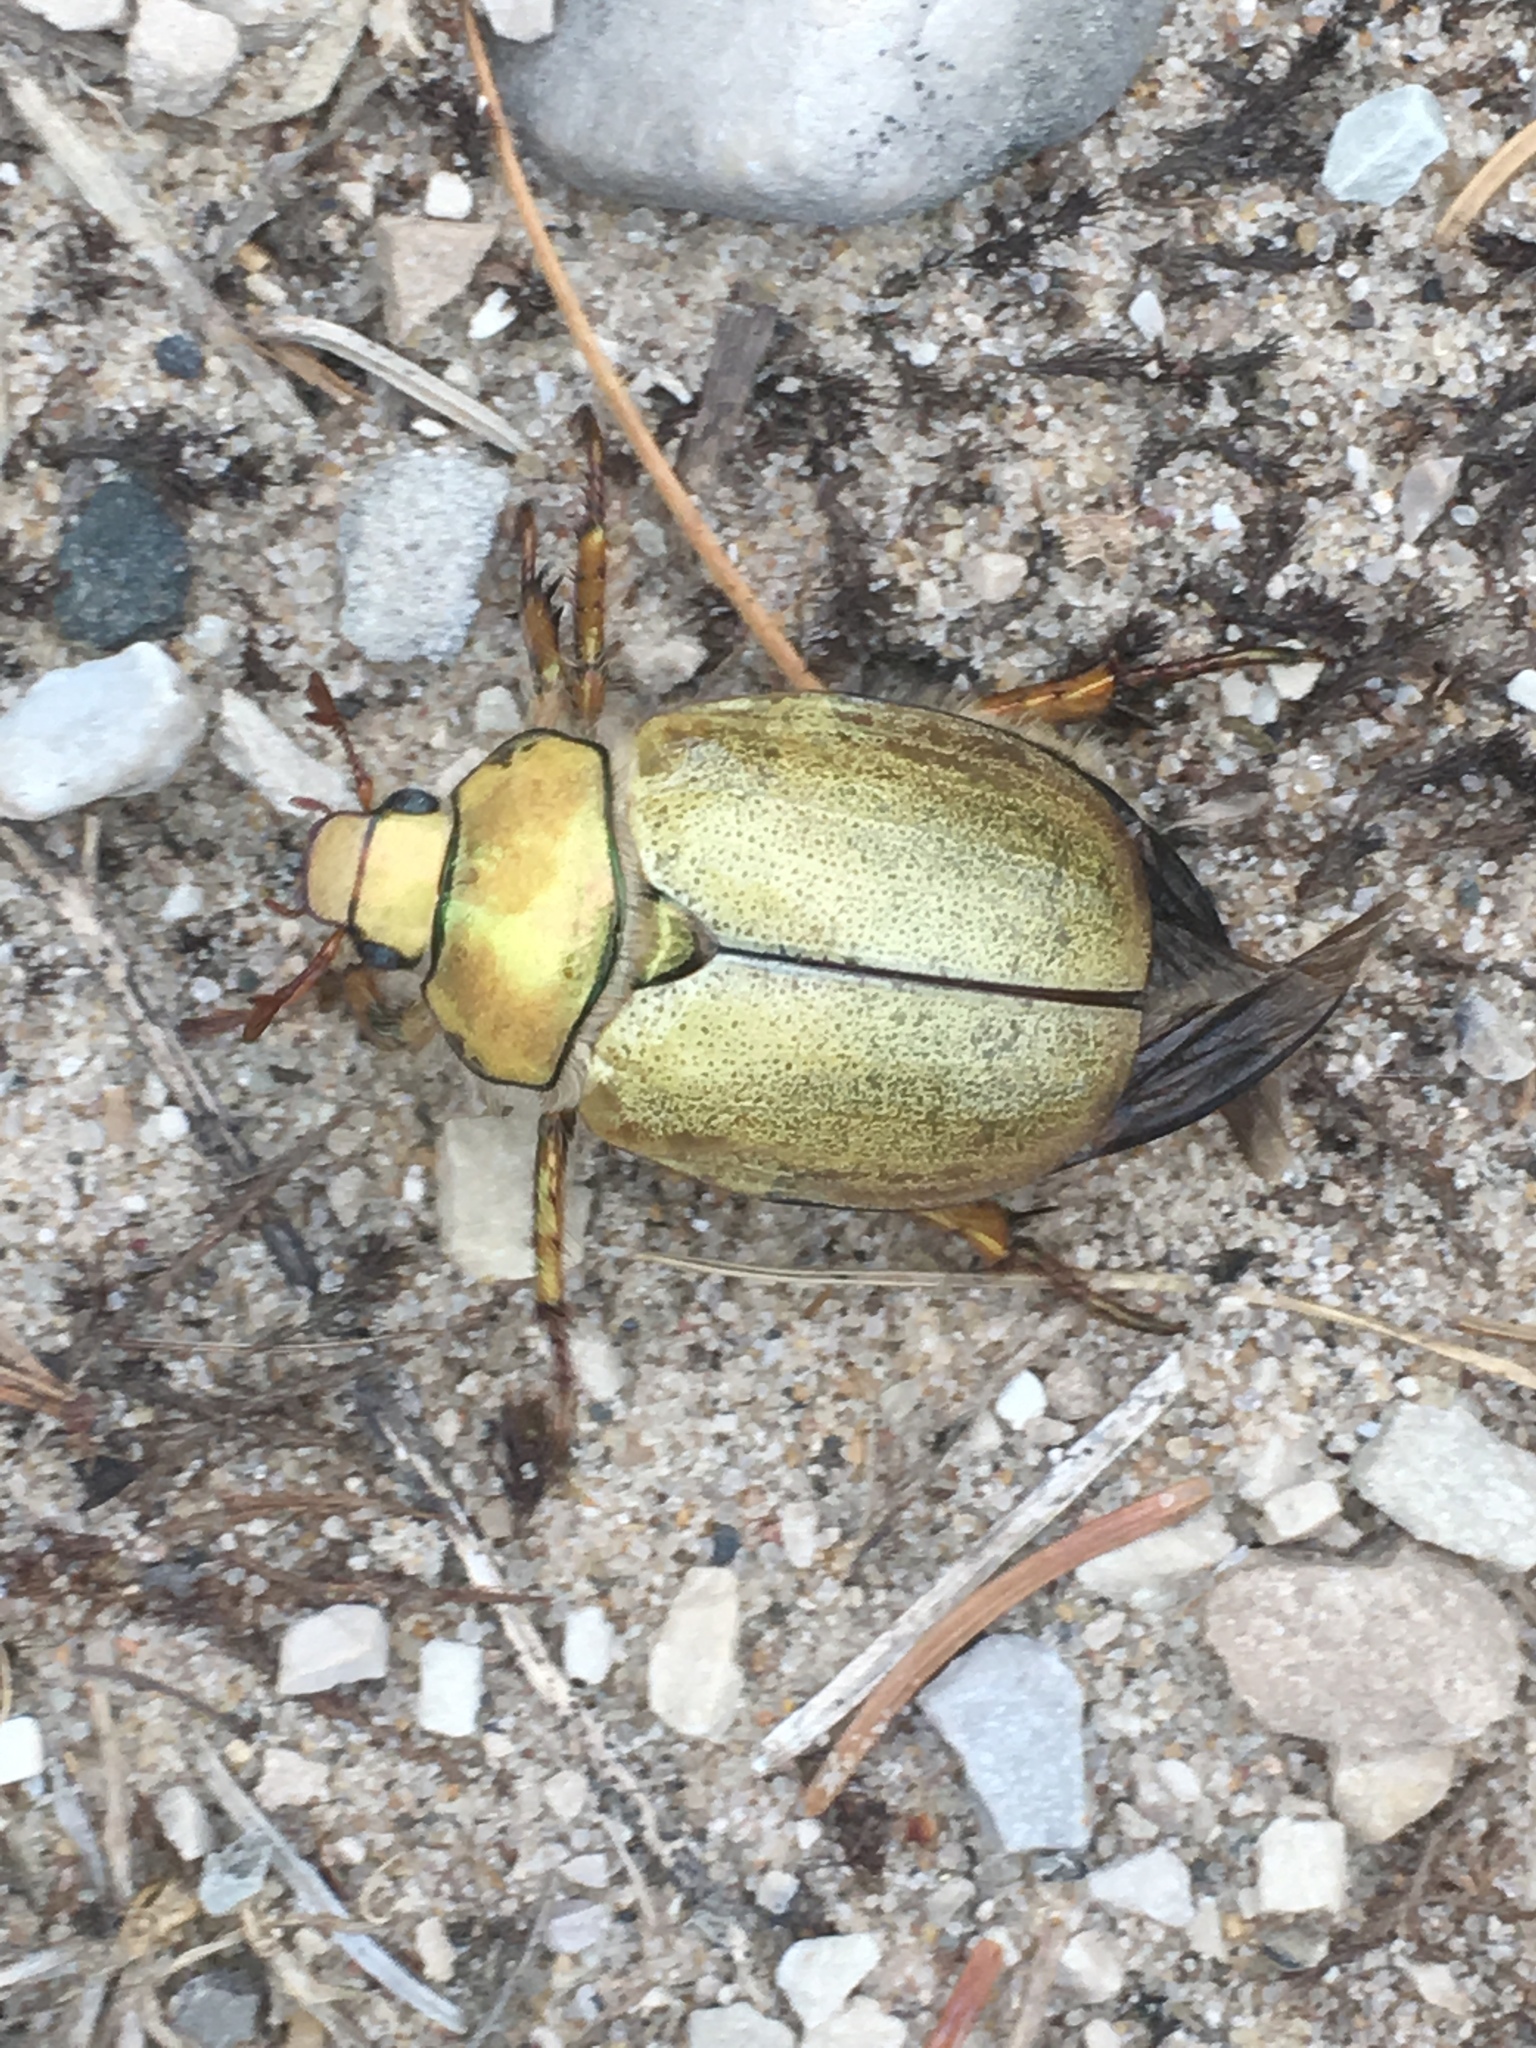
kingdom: Animalia
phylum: Arthropoda
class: Insecta
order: Coleoptera
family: Scarabaeidae
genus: Cotalpa
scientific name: Cotalpa lanigera
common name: Goldsmith beetle
